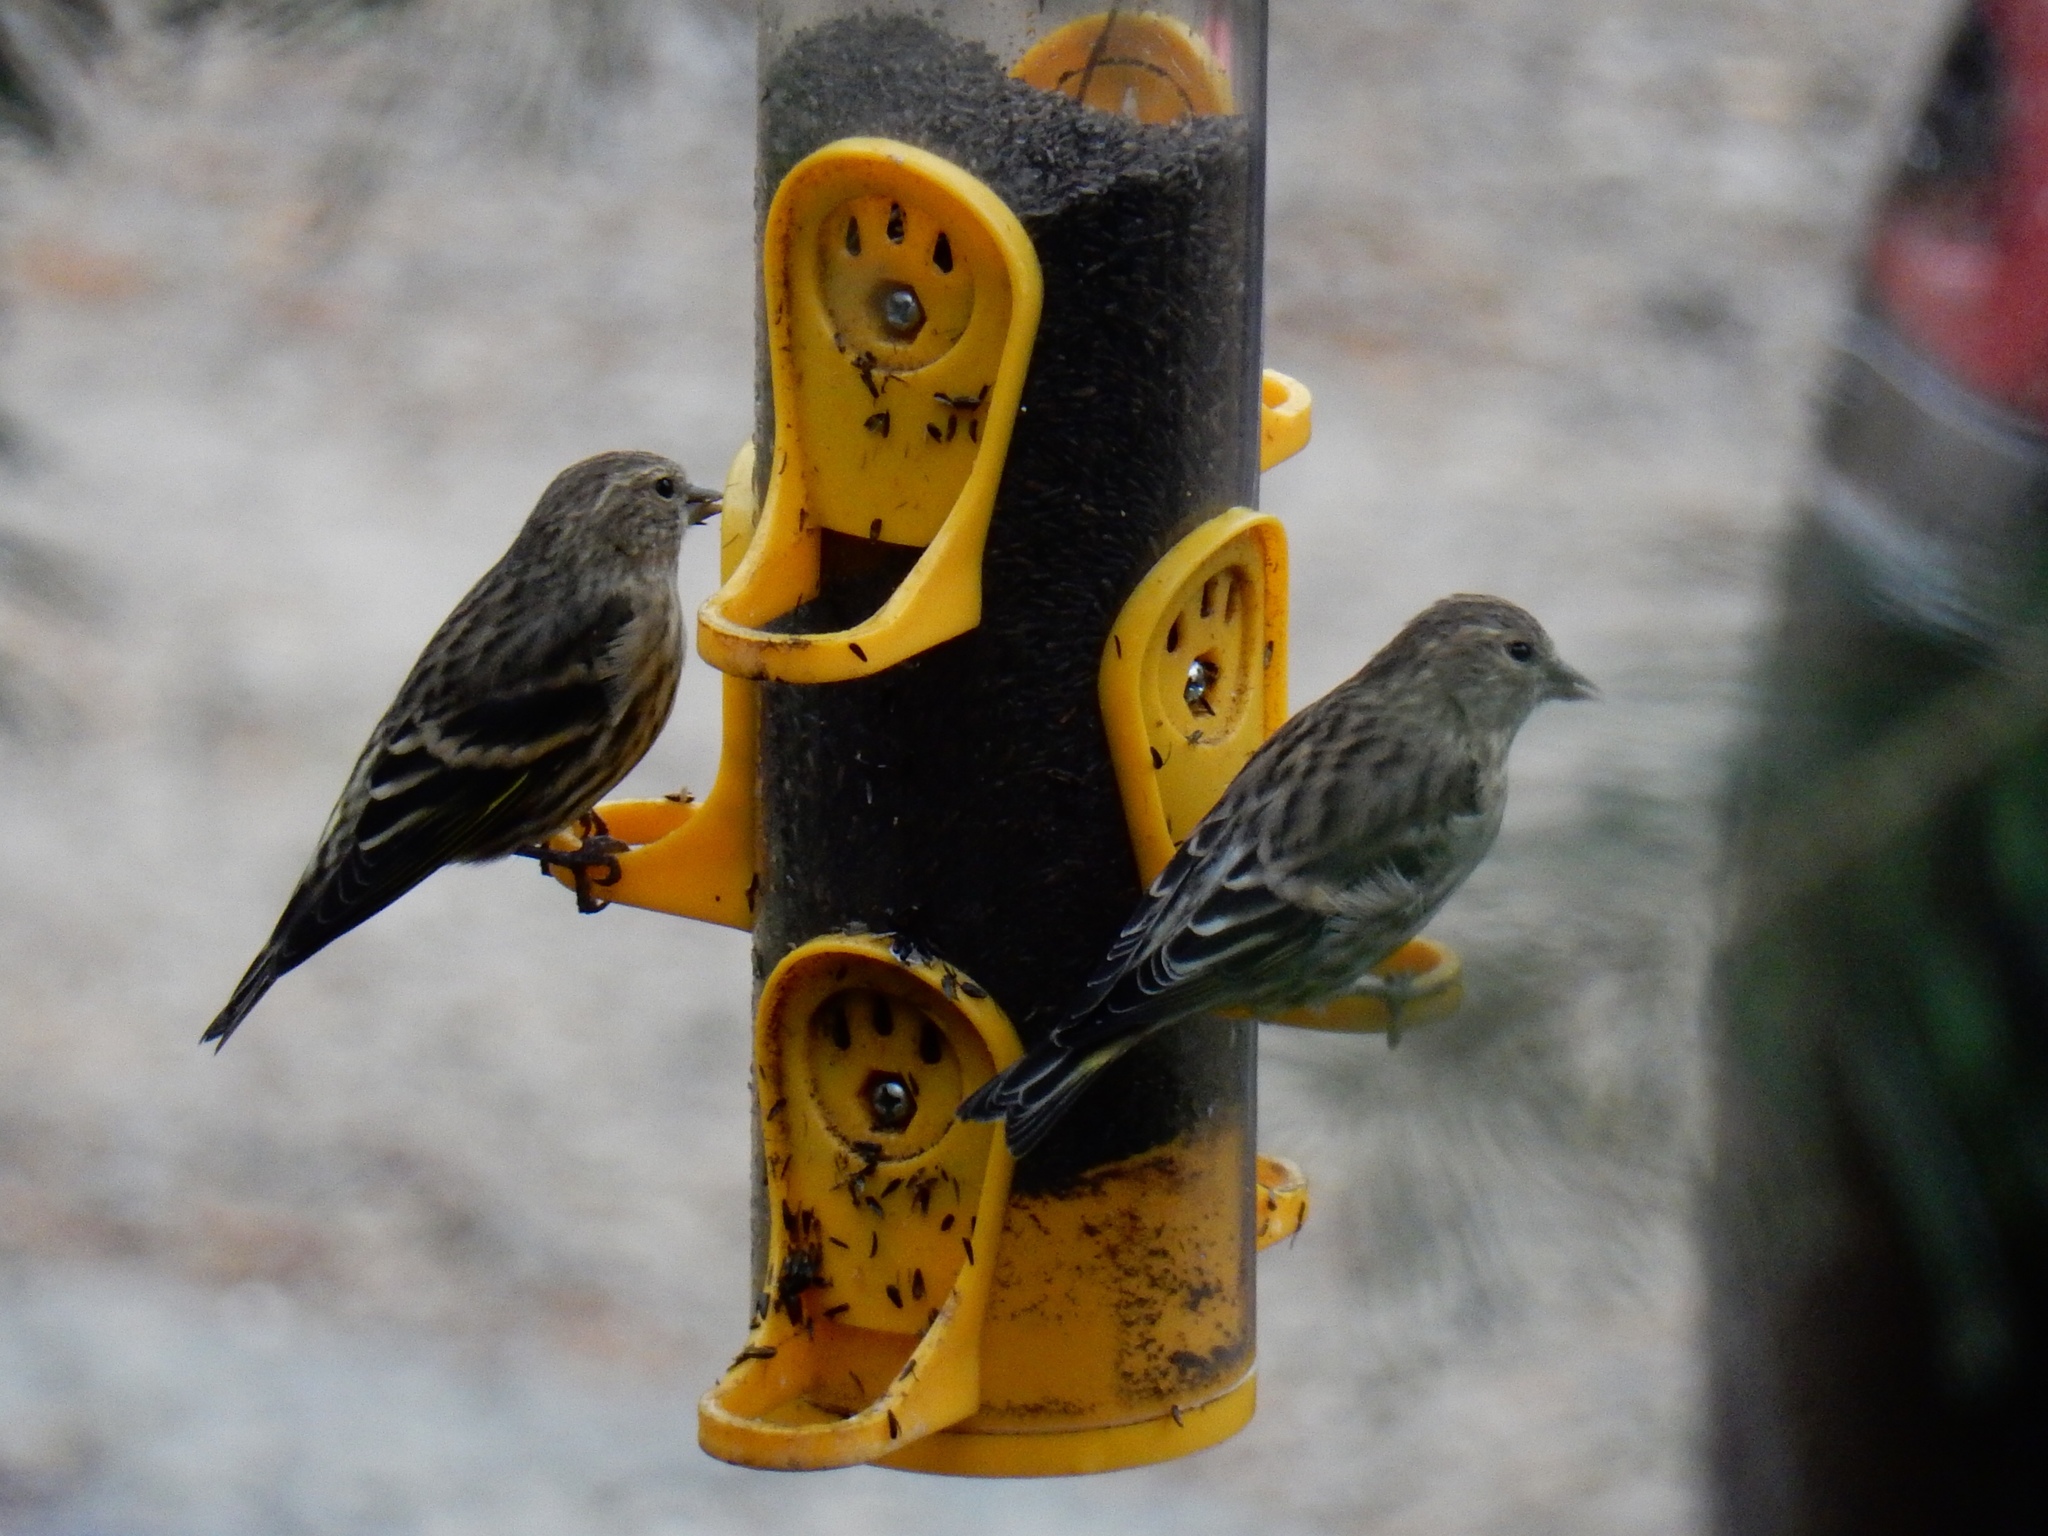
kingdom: Animalia
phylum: Chordata
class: Aves
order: Passeriformes
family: Fringillidae
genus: Spinus
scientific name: Spinus pinus
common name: Pine siskin
